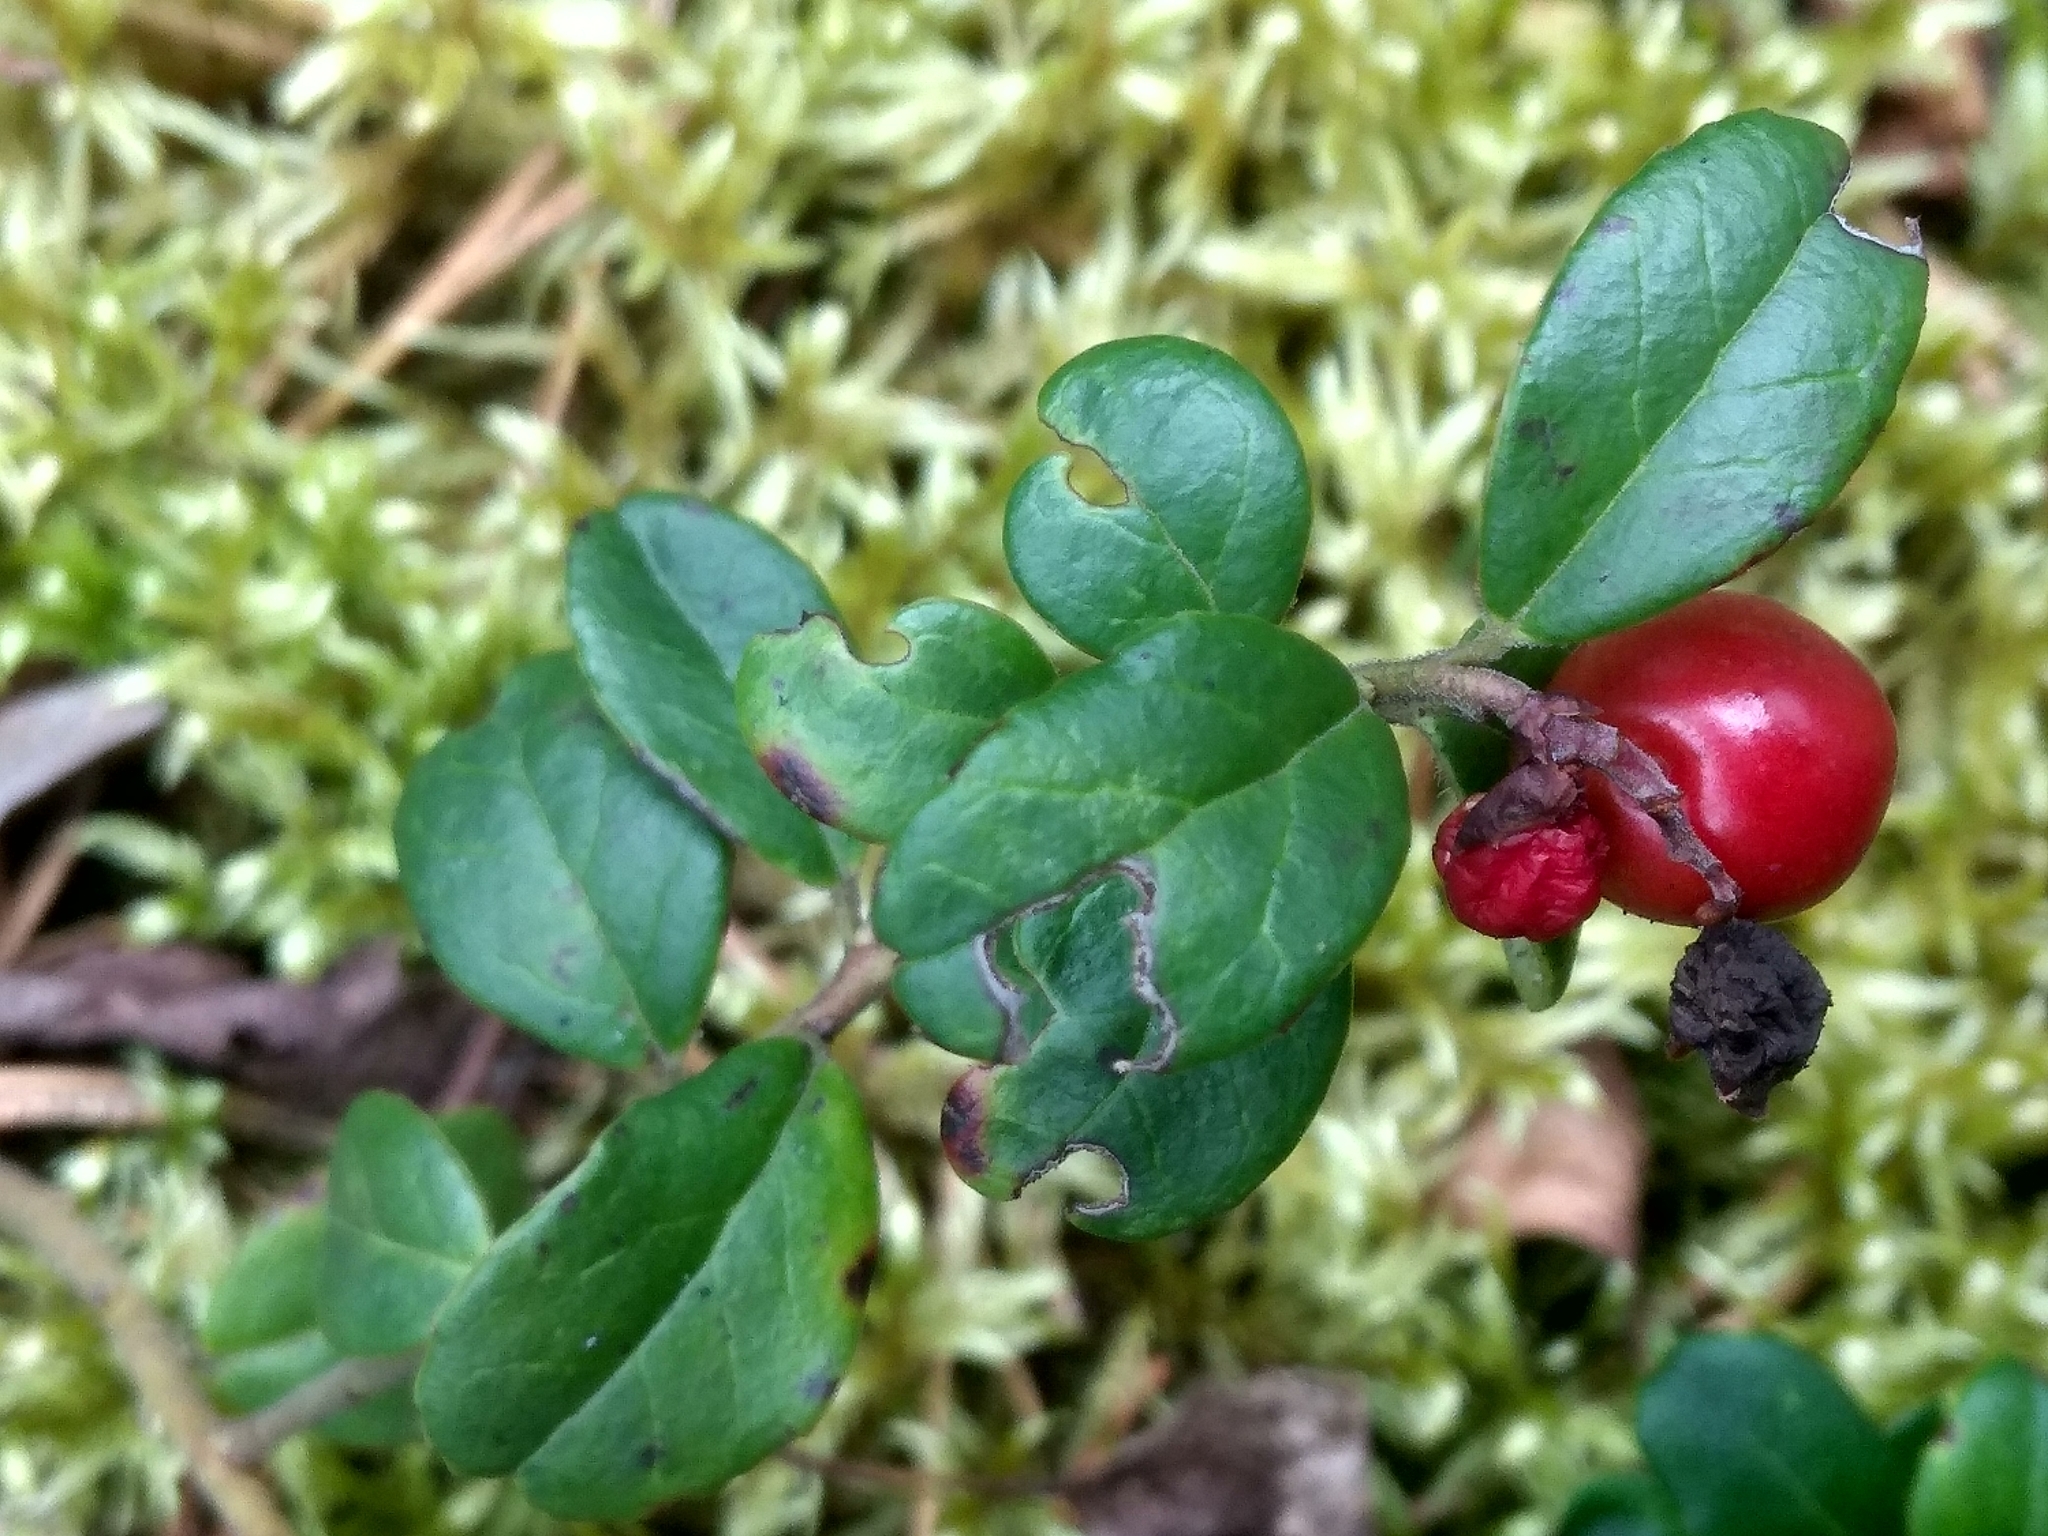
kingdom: Plantae
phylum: Tracheophyta
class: Magnoliopsida
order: Ericales
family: Ericaceae
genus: Vaccinium
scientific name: Vaccinium vitis-idaea
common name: Cowberry
